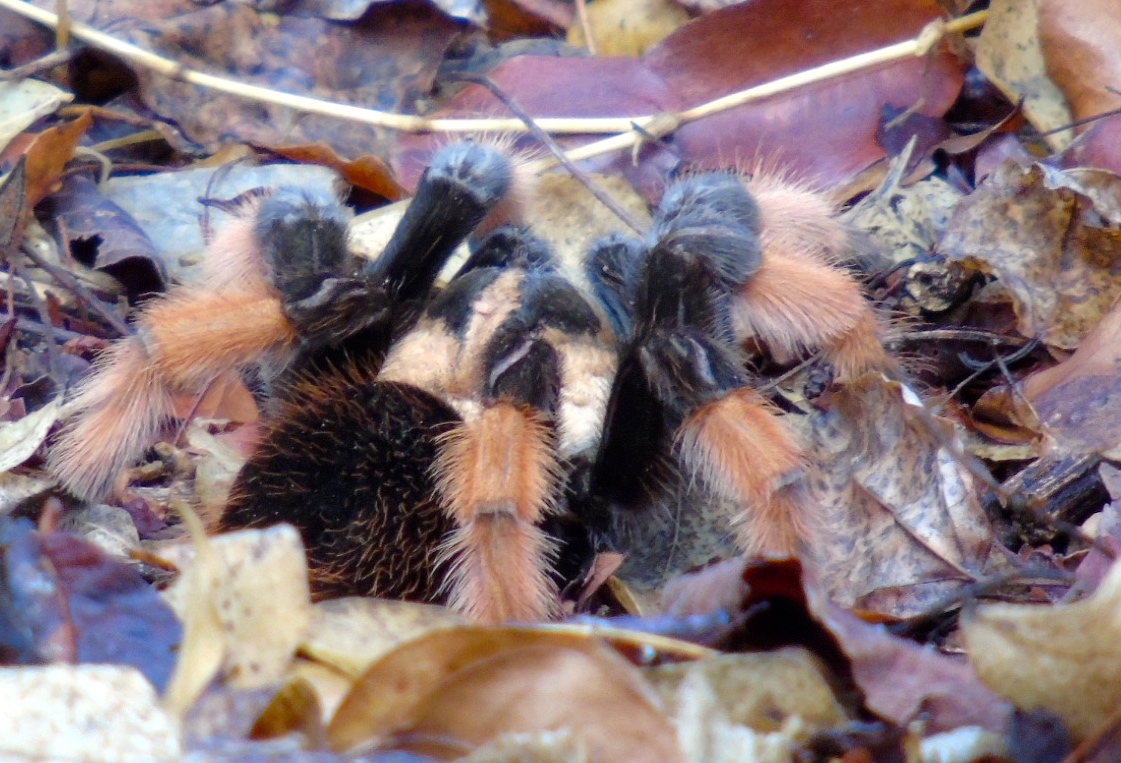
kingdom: Animalia
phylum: Arthropoda
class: Arachnida
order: Araneae
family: Theraphosidae
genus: Brachypelma
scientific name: Brachypelma emilia
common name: Mexican redleg
